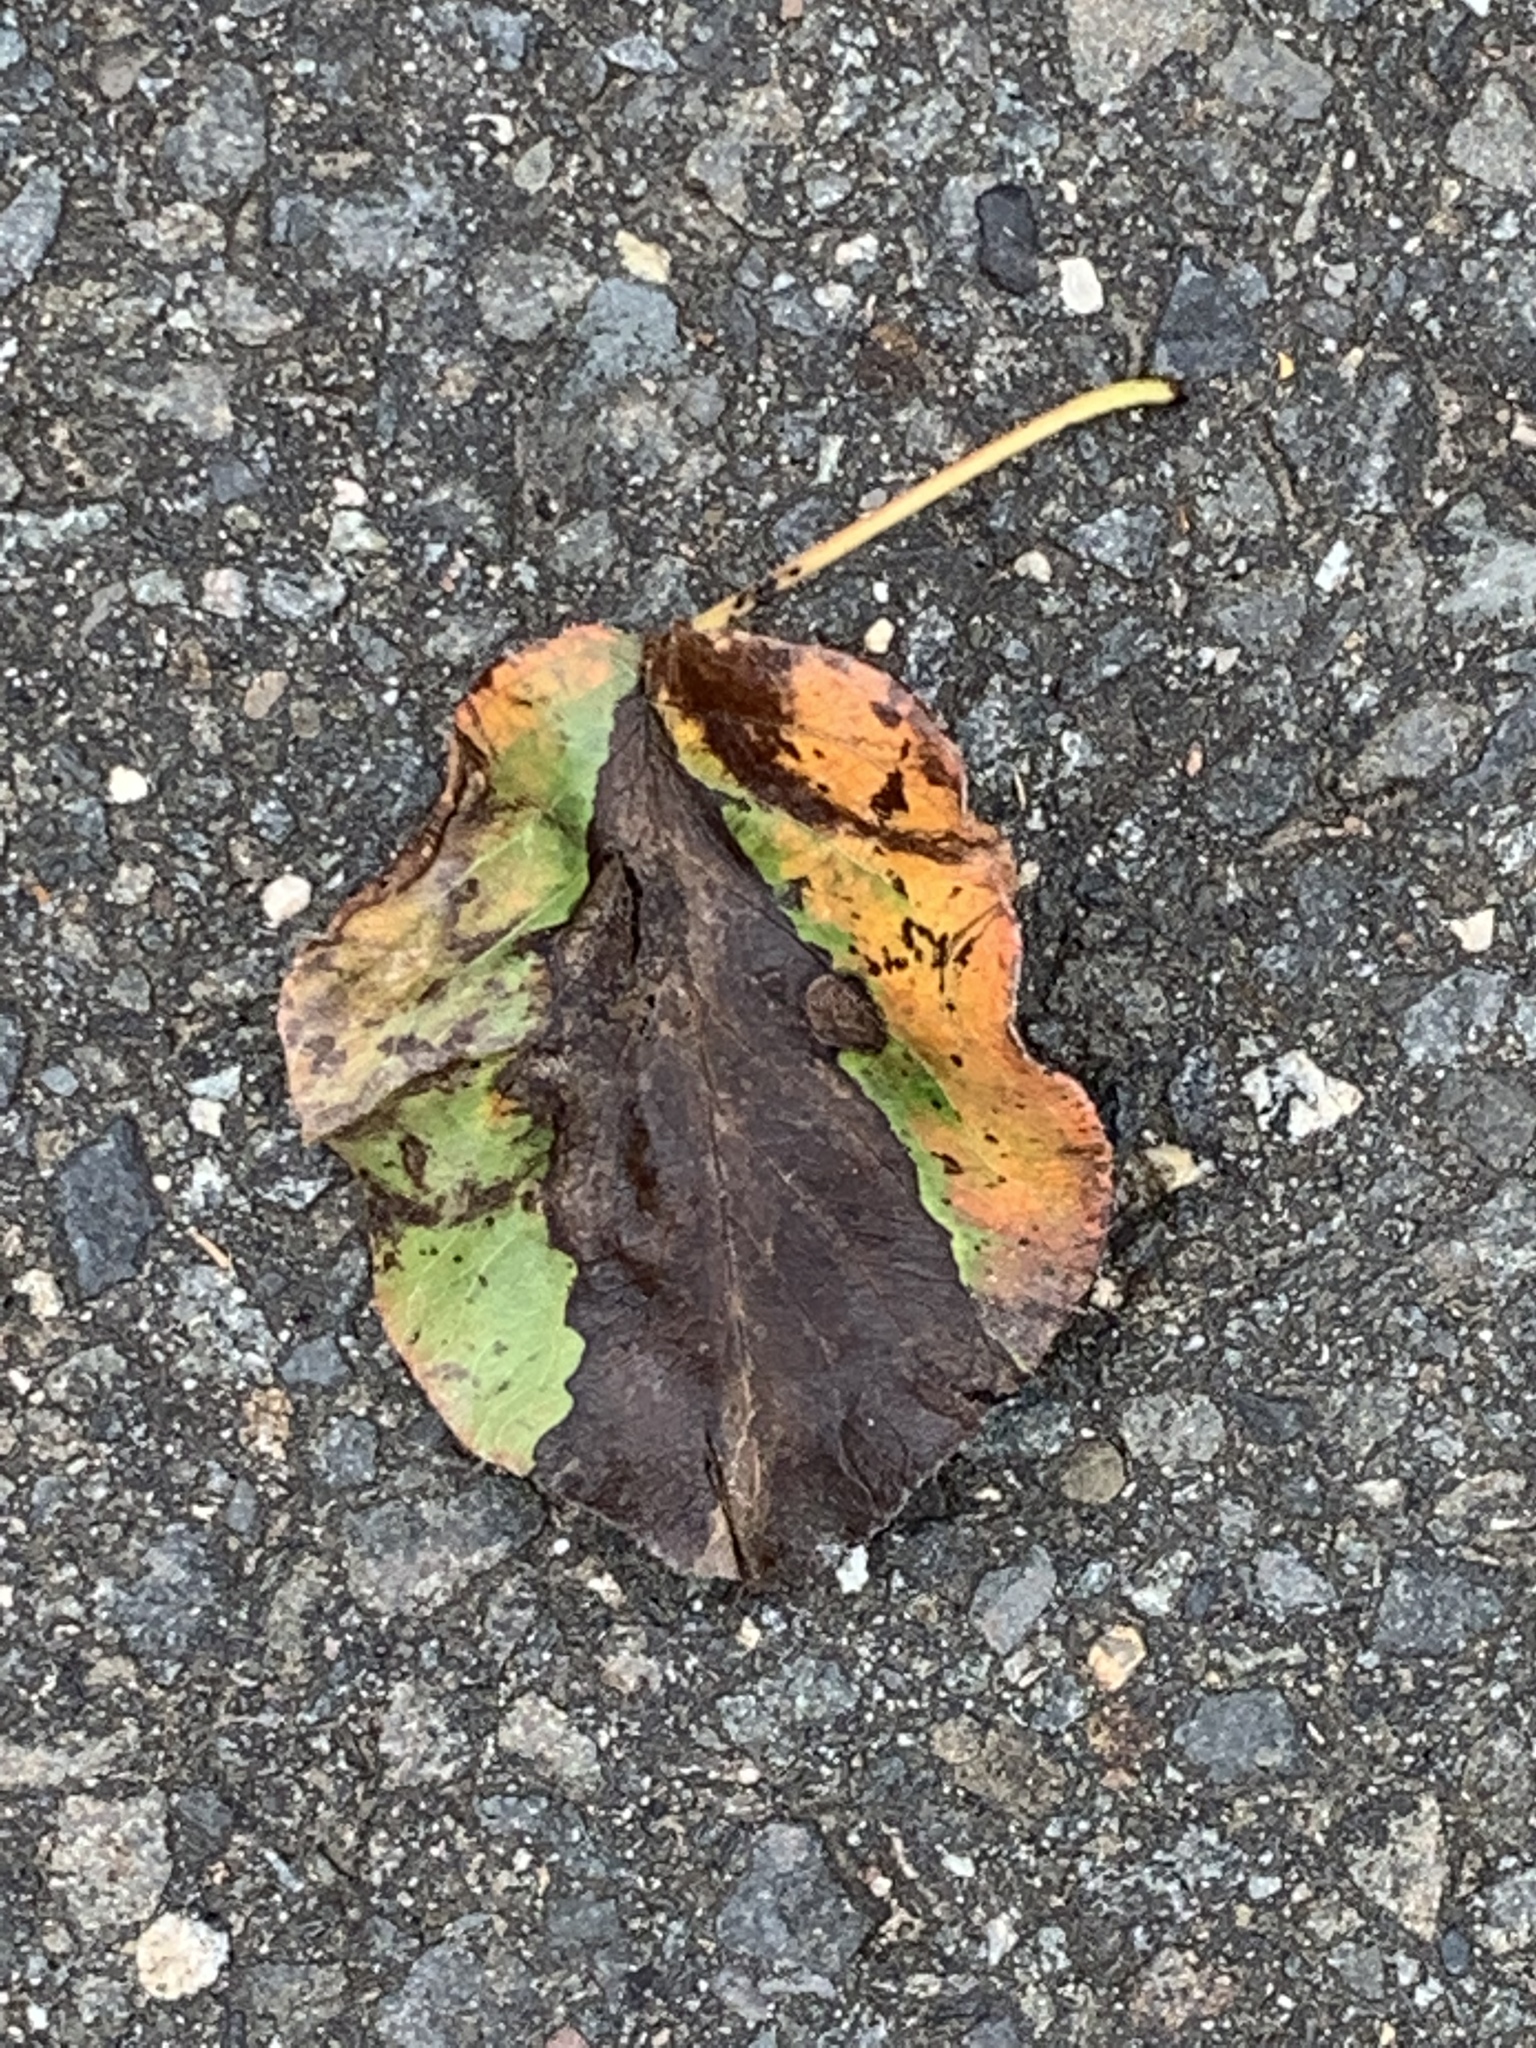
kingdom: Plantae
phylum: Tracheophyta
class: Magnoliopsida
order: Rosales
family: Rosaceae
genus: Pyrus
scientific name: Pyrus calleryana
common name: Callery pear
